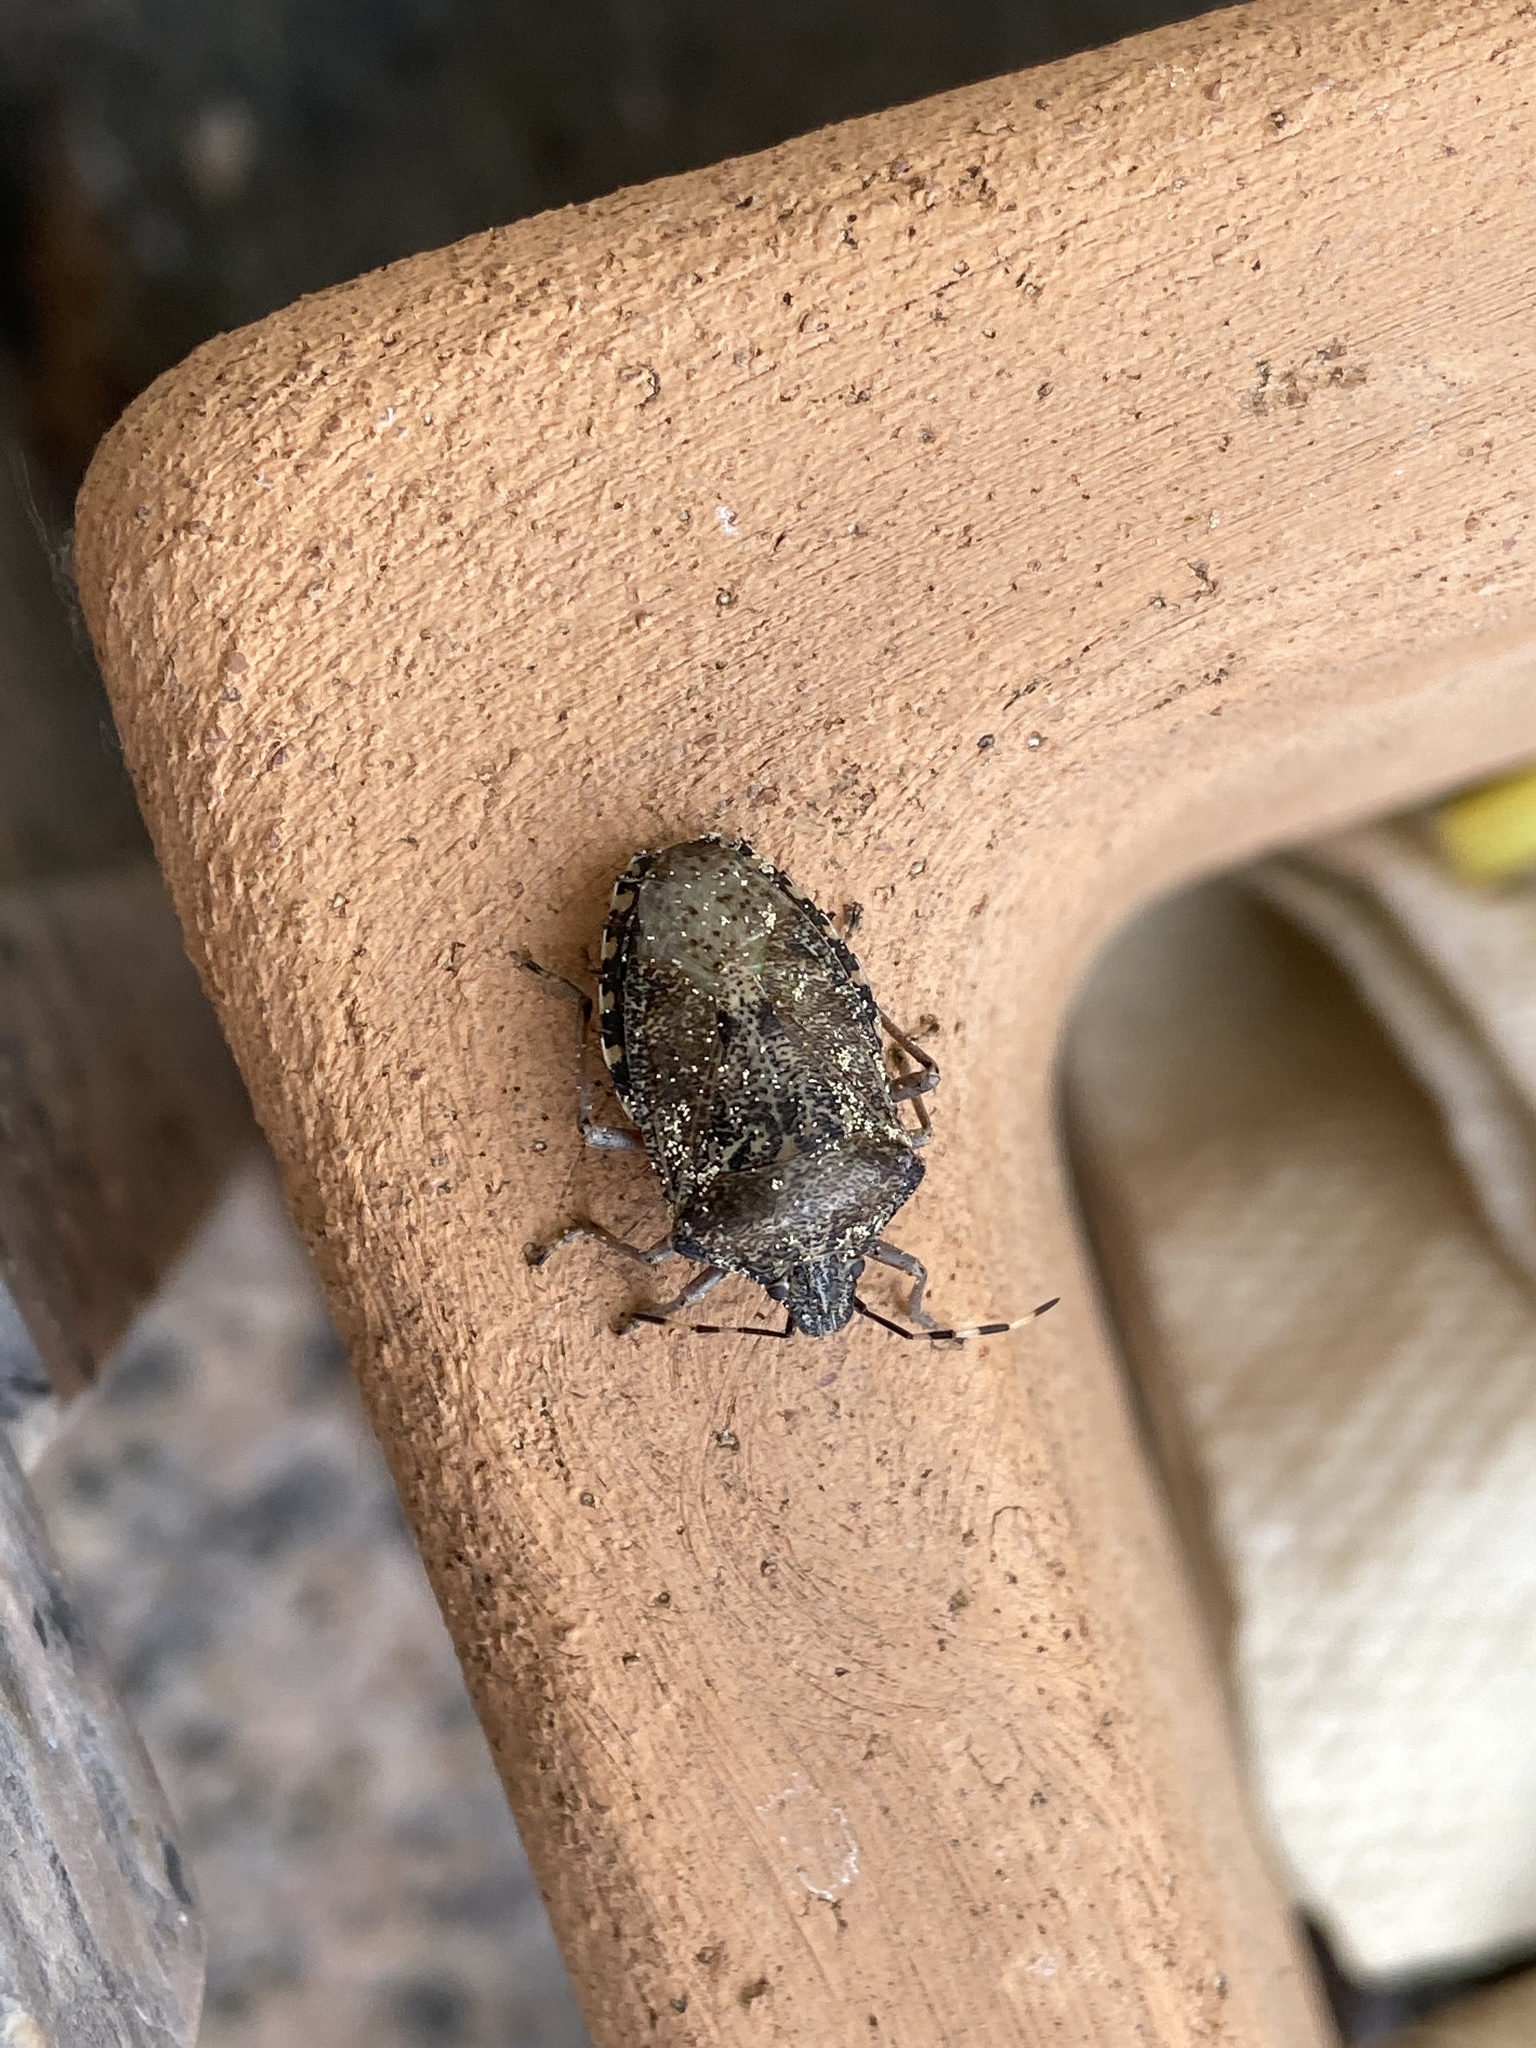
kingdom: Animalia
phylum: Arthropoda
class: Insecta
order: Hemiptera
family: Pentatomidae
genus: Rhaphigaster
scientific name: Rhaphigaster nebulosa
